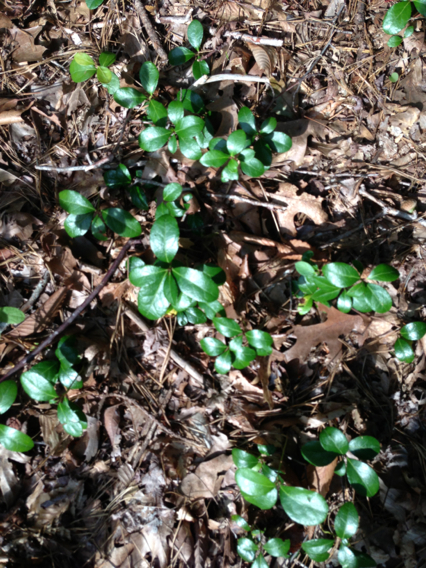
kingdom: Plantae
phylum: Tracheophyta
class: Magnoliopsida
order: Ericales
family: Ericaceae
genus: Gaultheria
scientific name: Gaultheria procumbens
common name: Checkerberry
